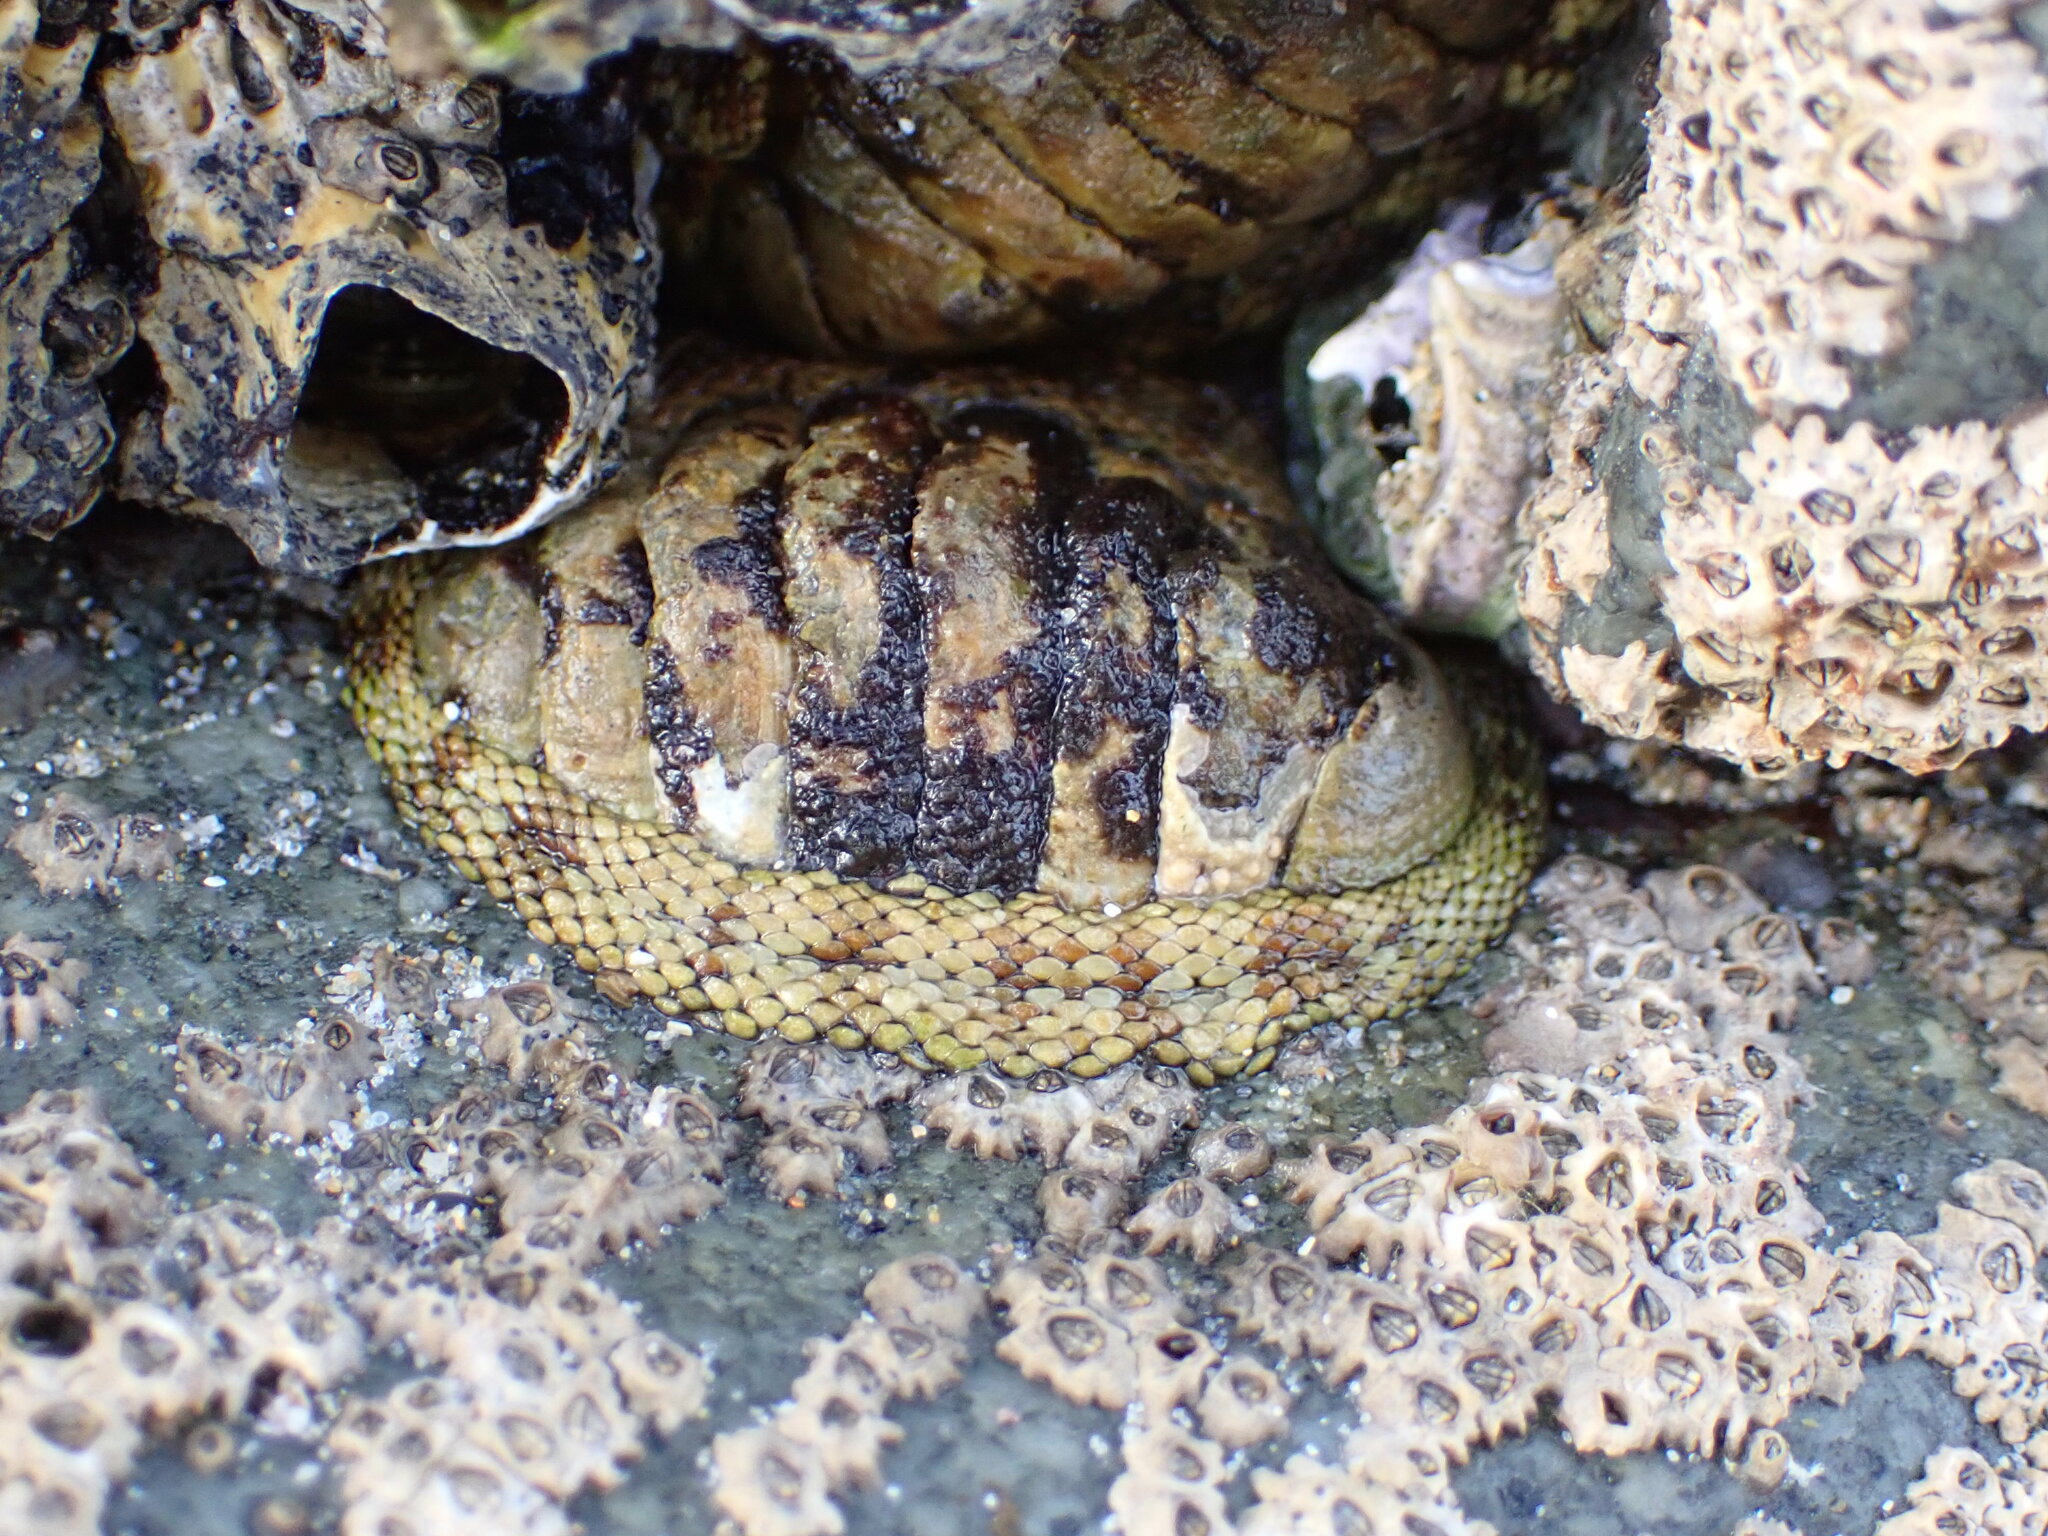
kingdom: Animalia
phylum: Mollusca
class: Polyplacophora
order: Chitonida
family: Chitonidae
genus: Sypharochiton
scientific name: Sypharochiton pelliserpentis
